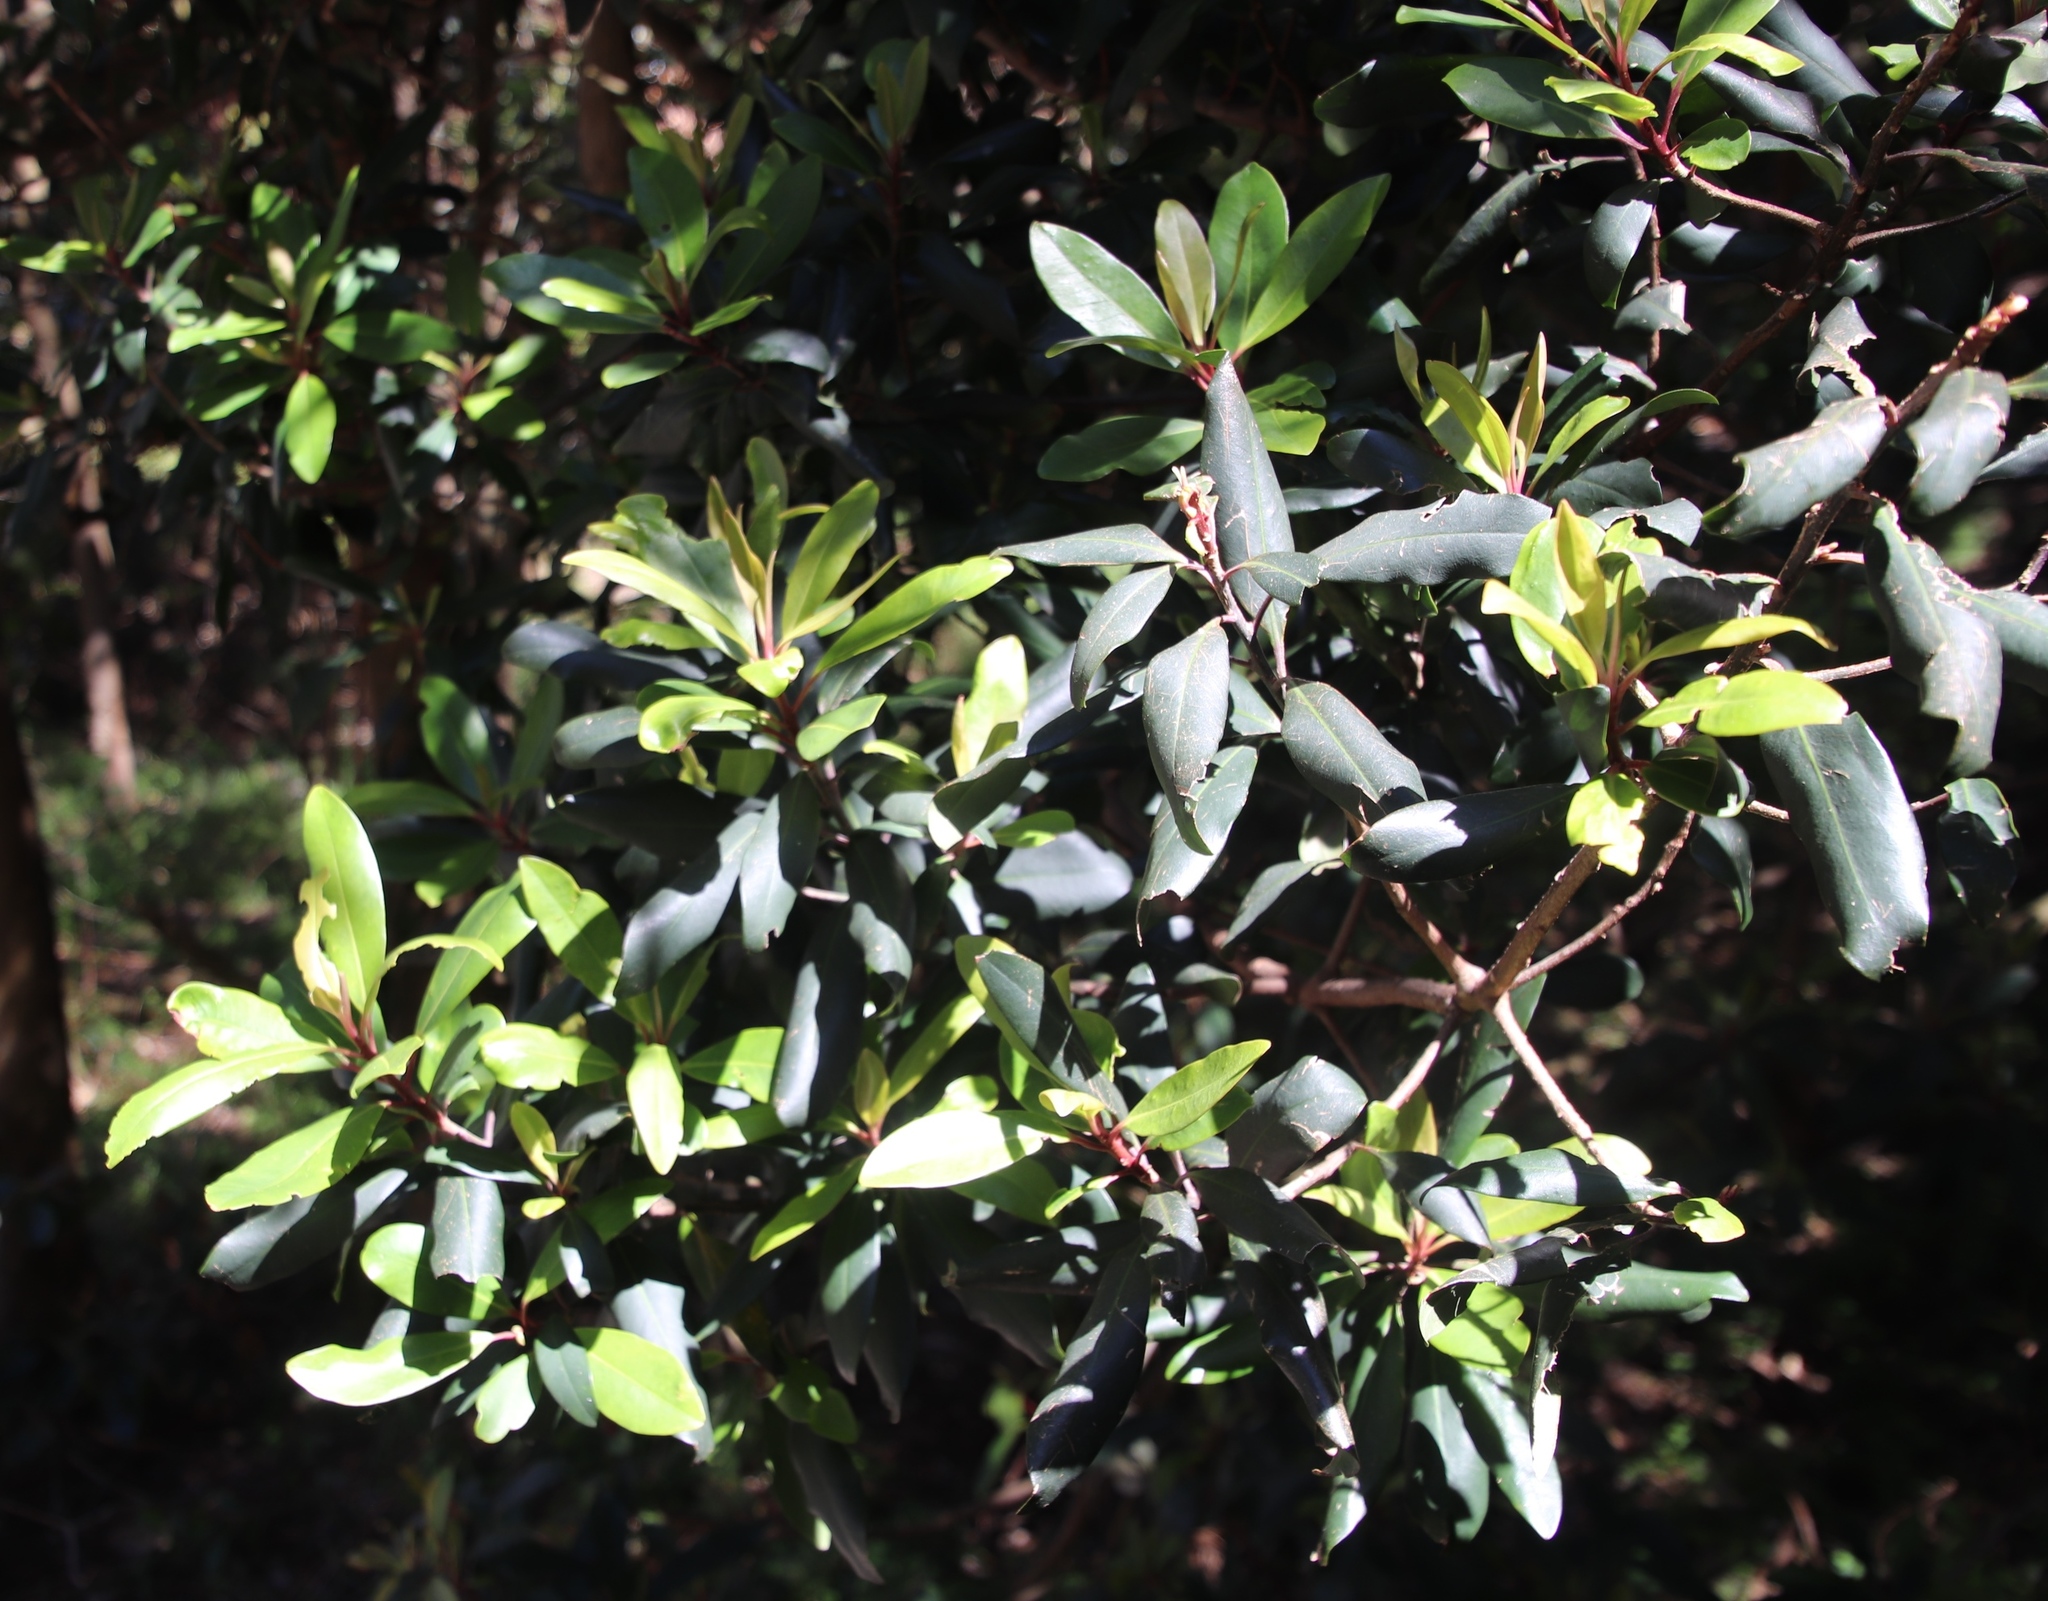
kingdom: Plantae
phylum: Tracheophyta
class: Magnoliopsida
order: Ericales
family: Primulaceae
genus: Myrsine
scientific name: Myrsine melanophloeos
